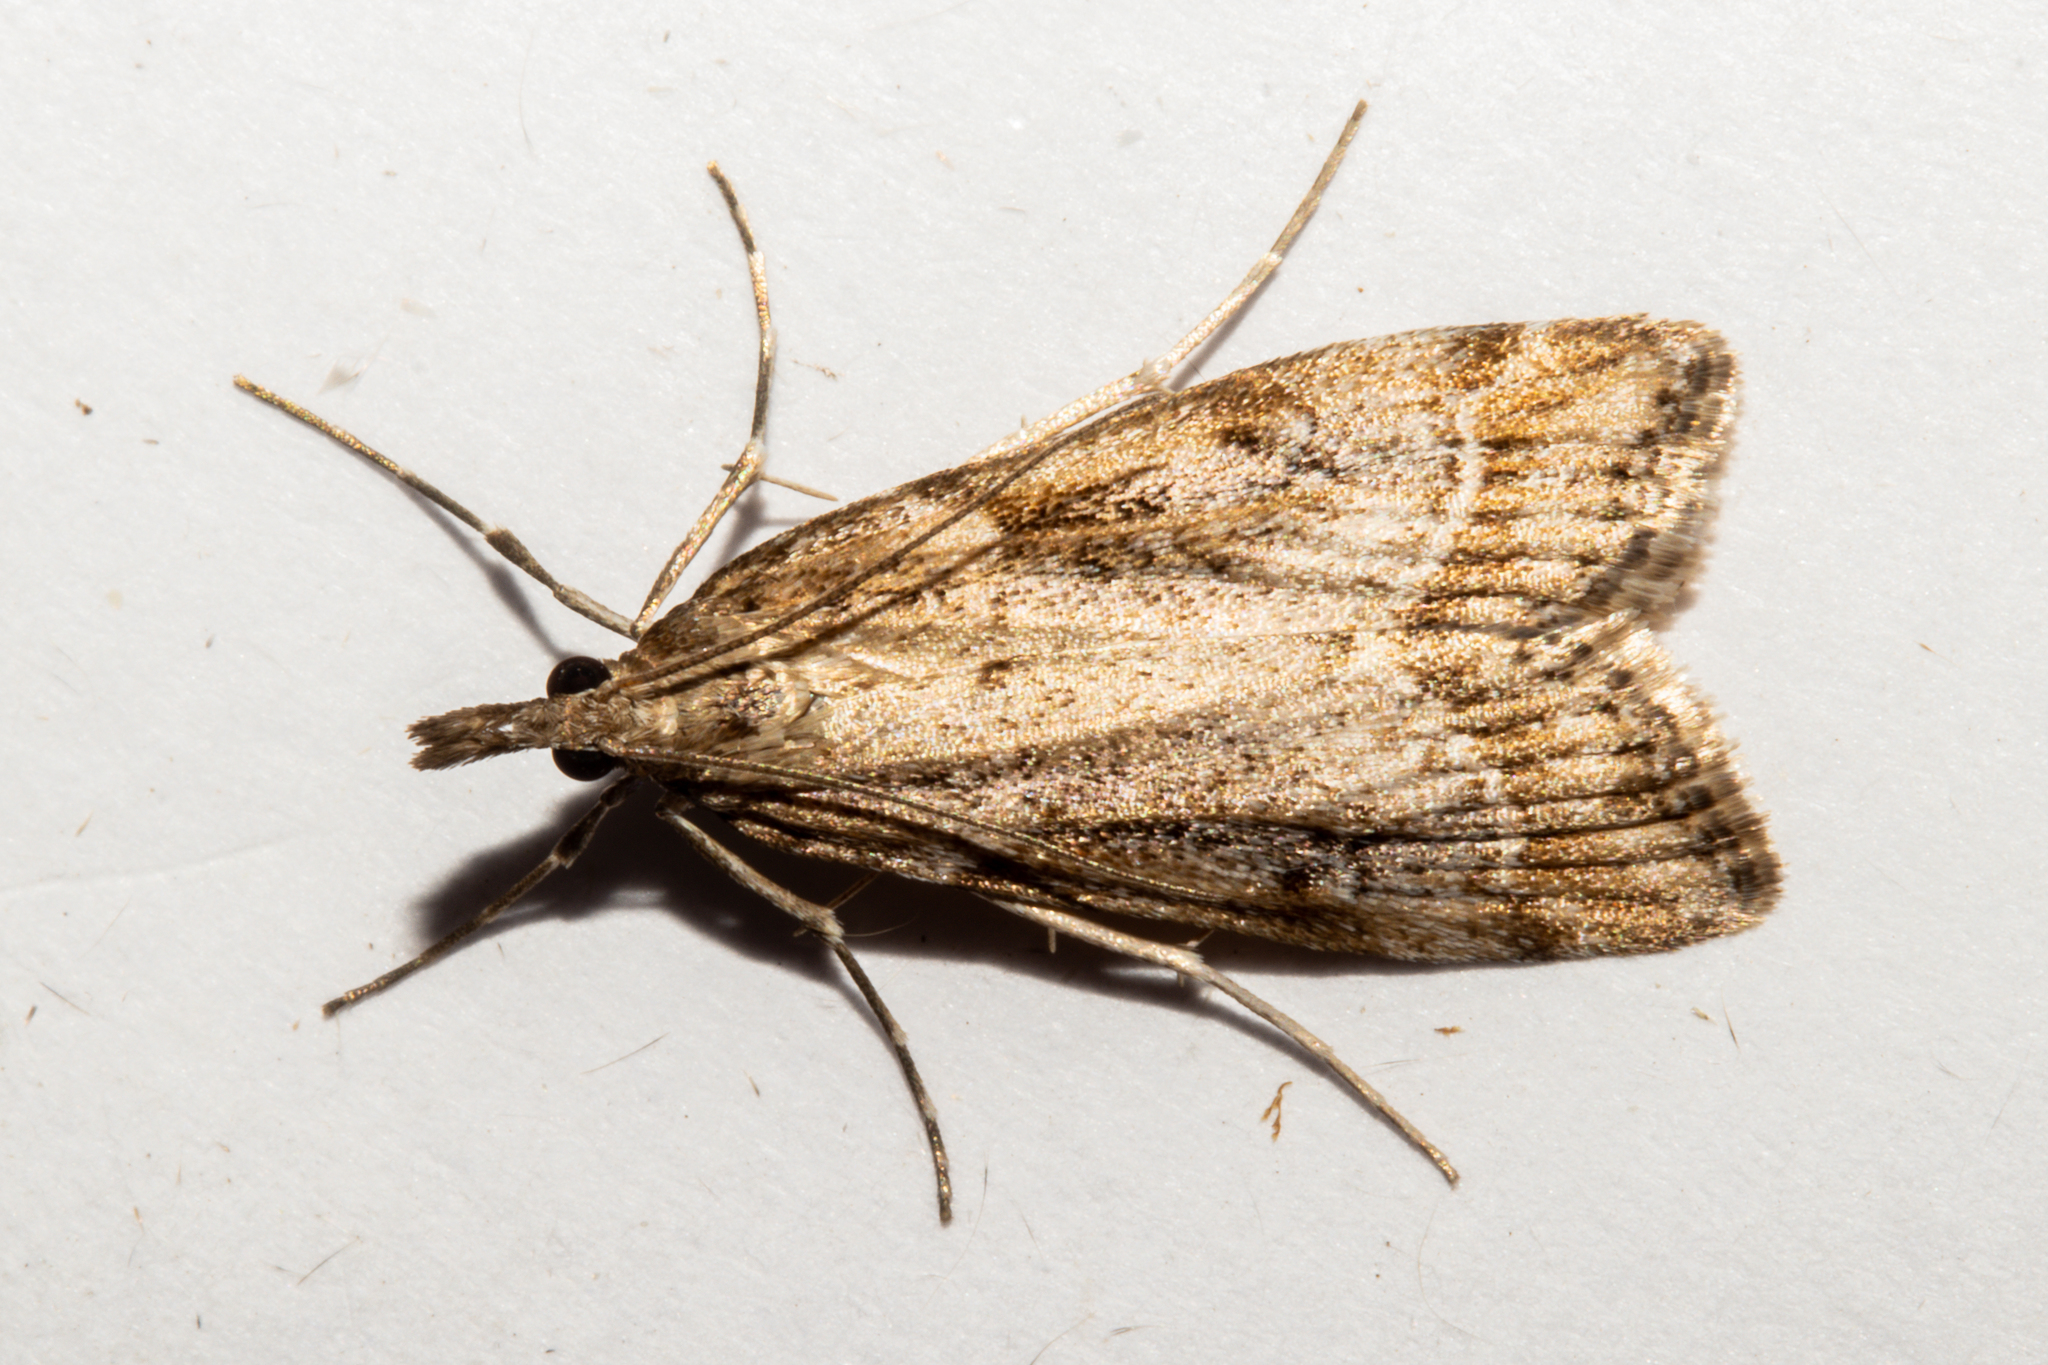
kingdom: Animalia
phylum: Arthropoda
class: Insecta
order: Lepidoptera
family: Crambidae
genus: Eudonia
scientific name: Eudonia chalara
